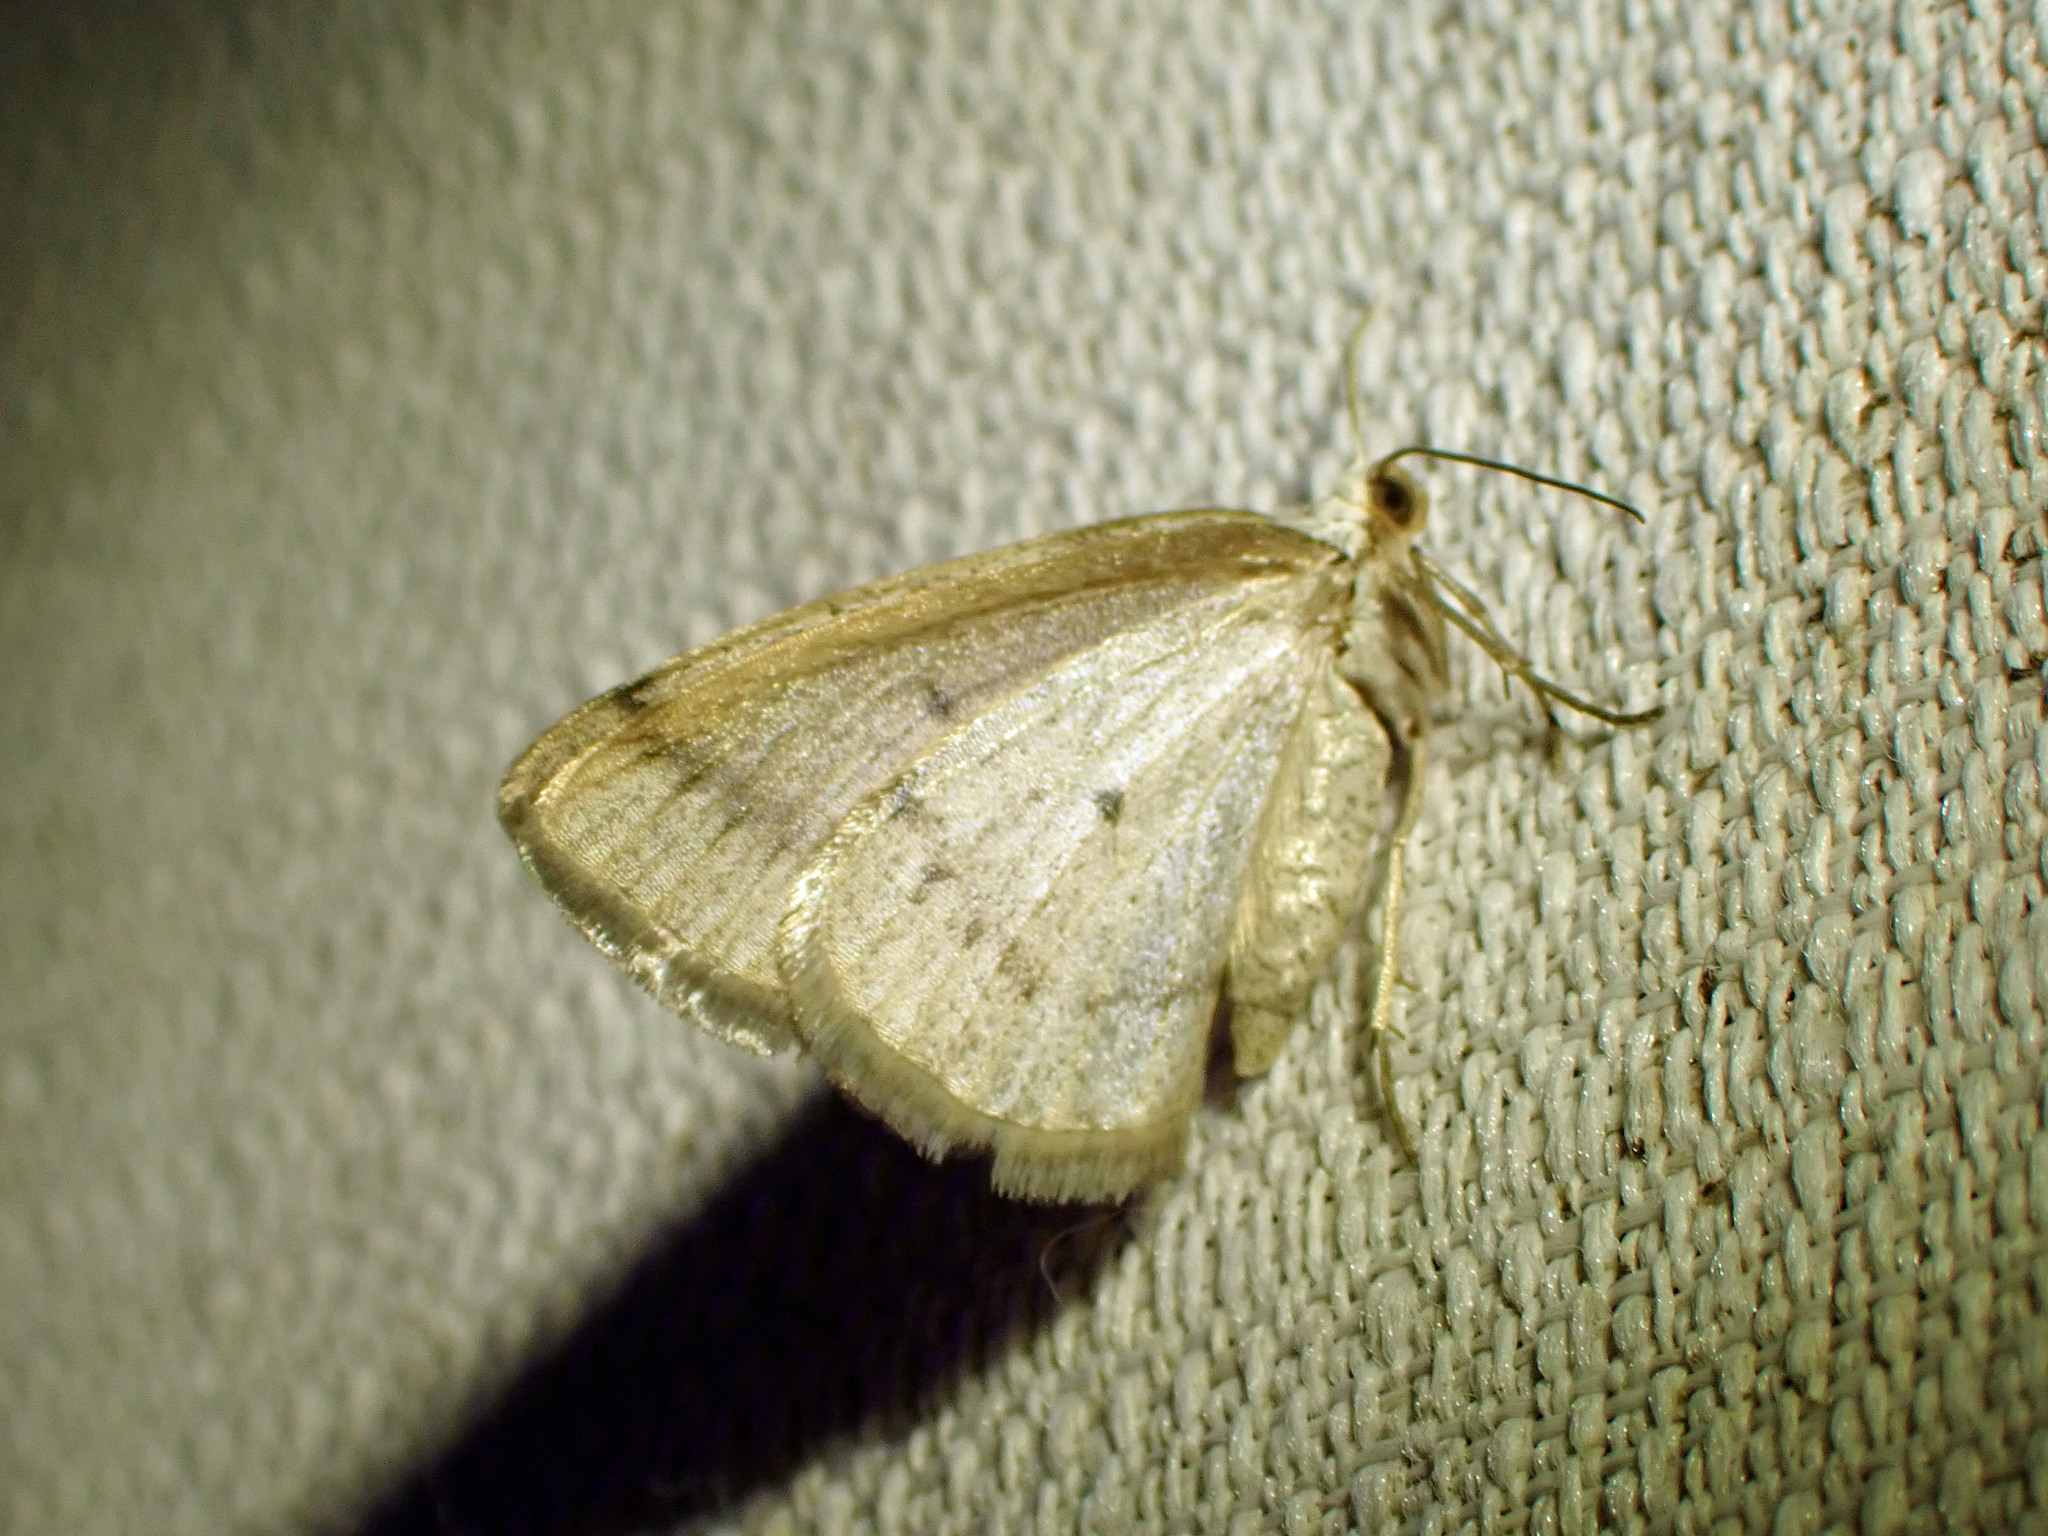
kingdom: Animalia
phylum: Arthropoda
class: Insecta
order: Lepidoptera
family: Geometridae
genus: Lomographa
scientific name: Lomographa glomeraria
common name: Gray spring moth
